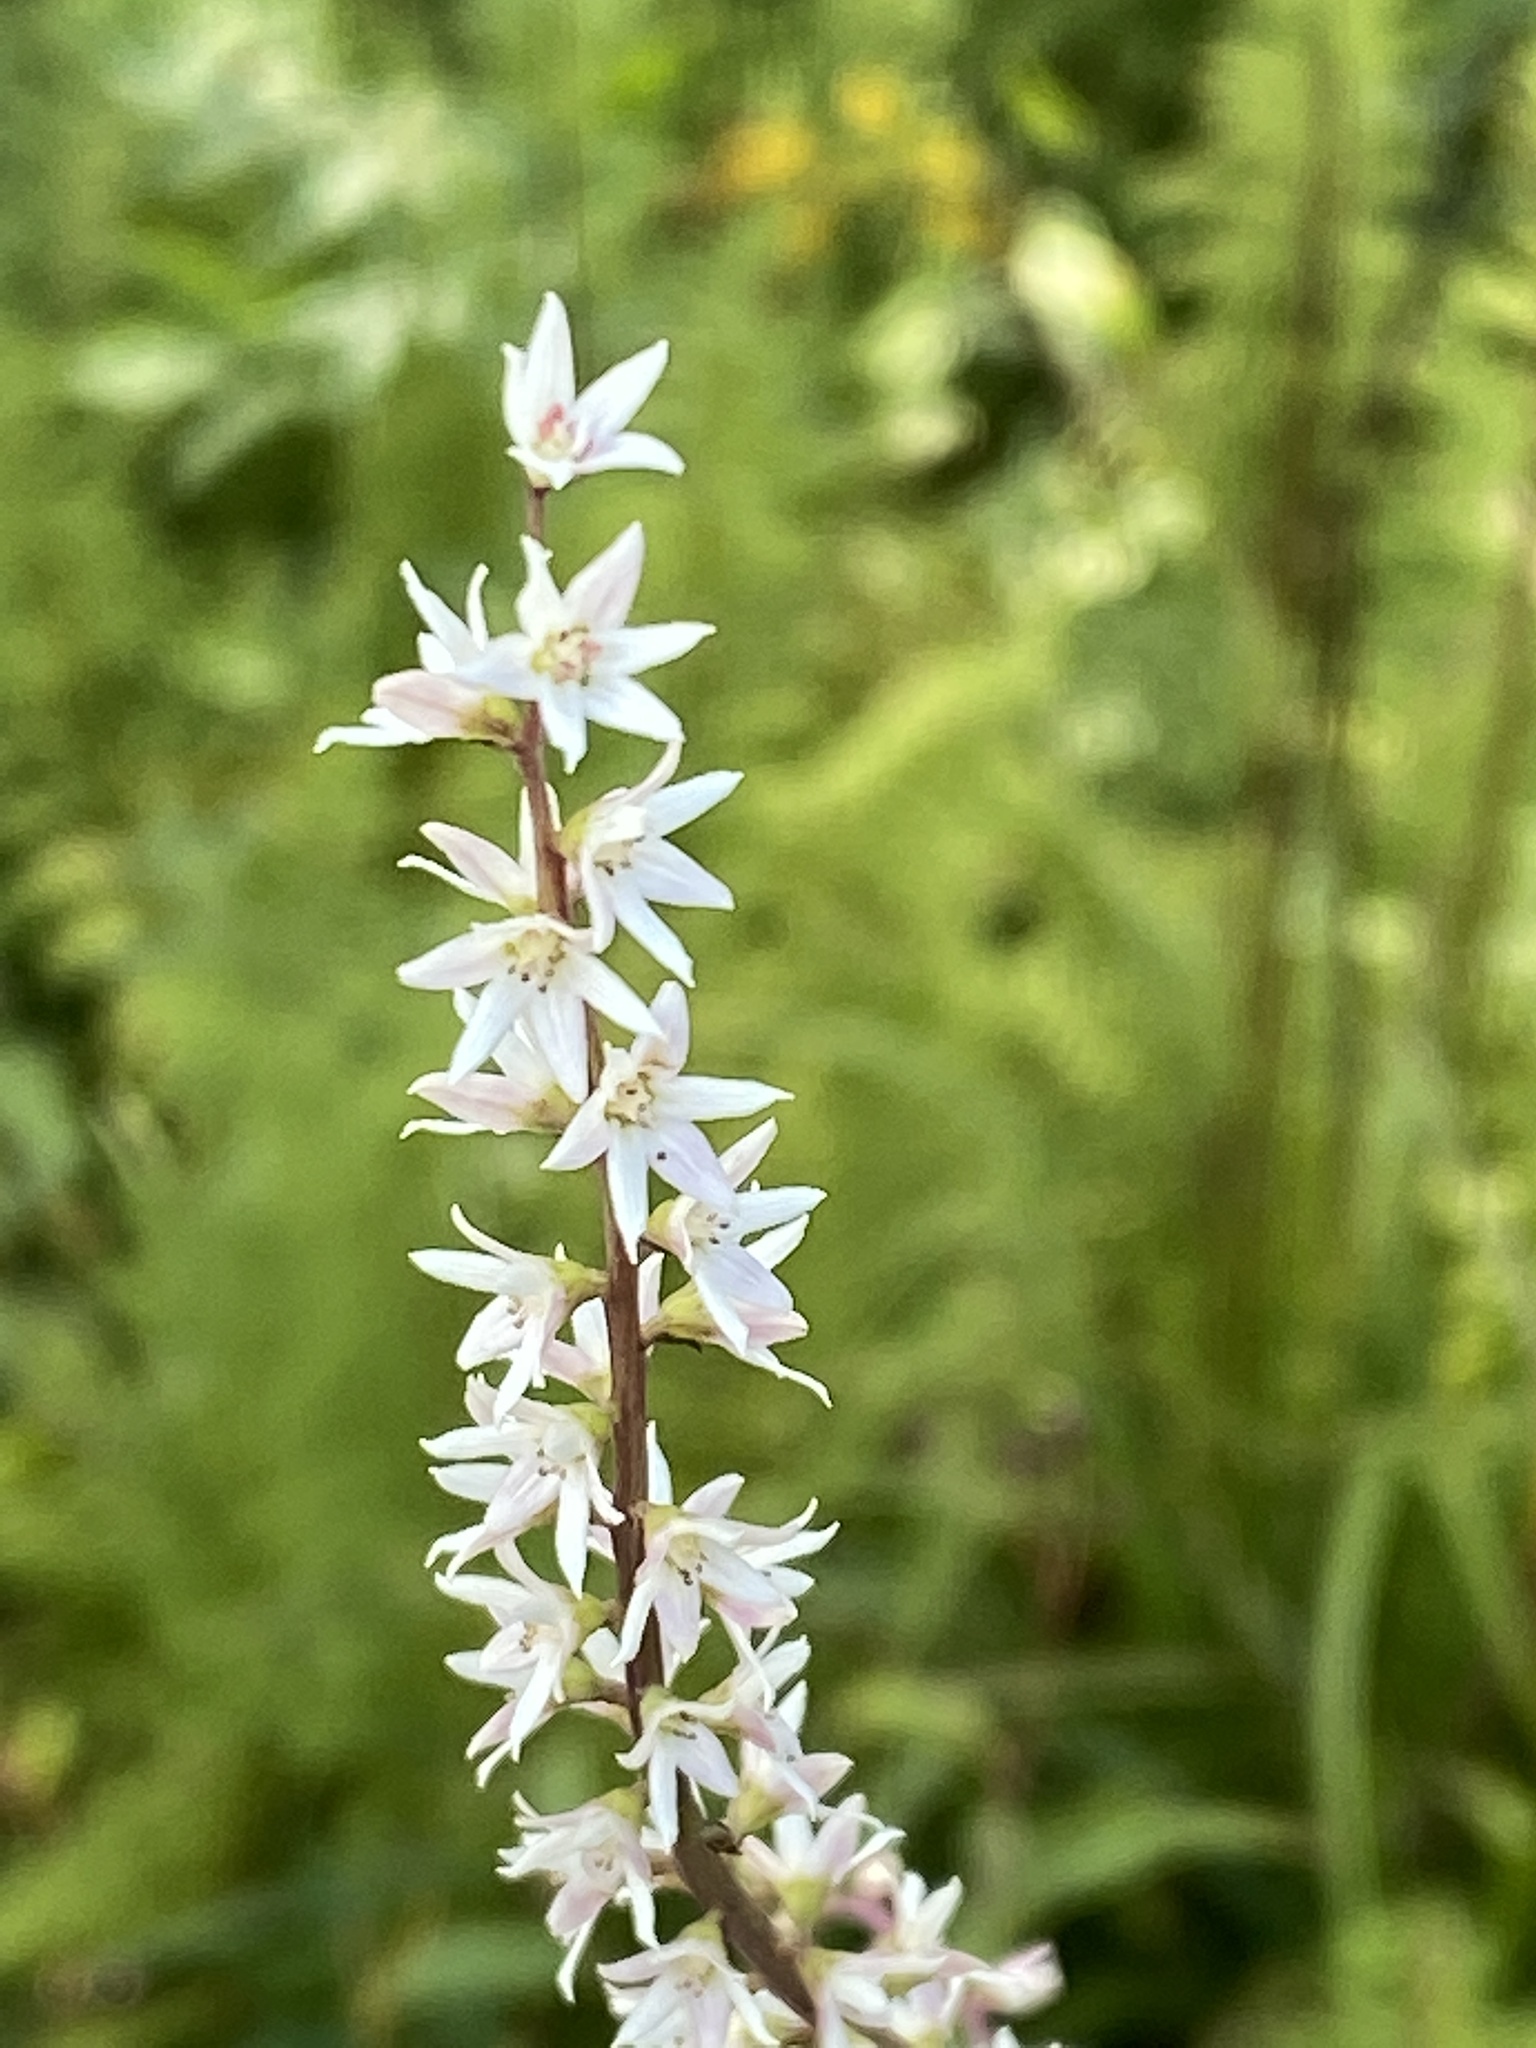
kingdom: Plantae
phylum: Tracheophyta
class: Liliopsida
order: Liliales
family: Melanthiaceae
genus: Stenanthium
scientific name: Stenanthium gramineum
